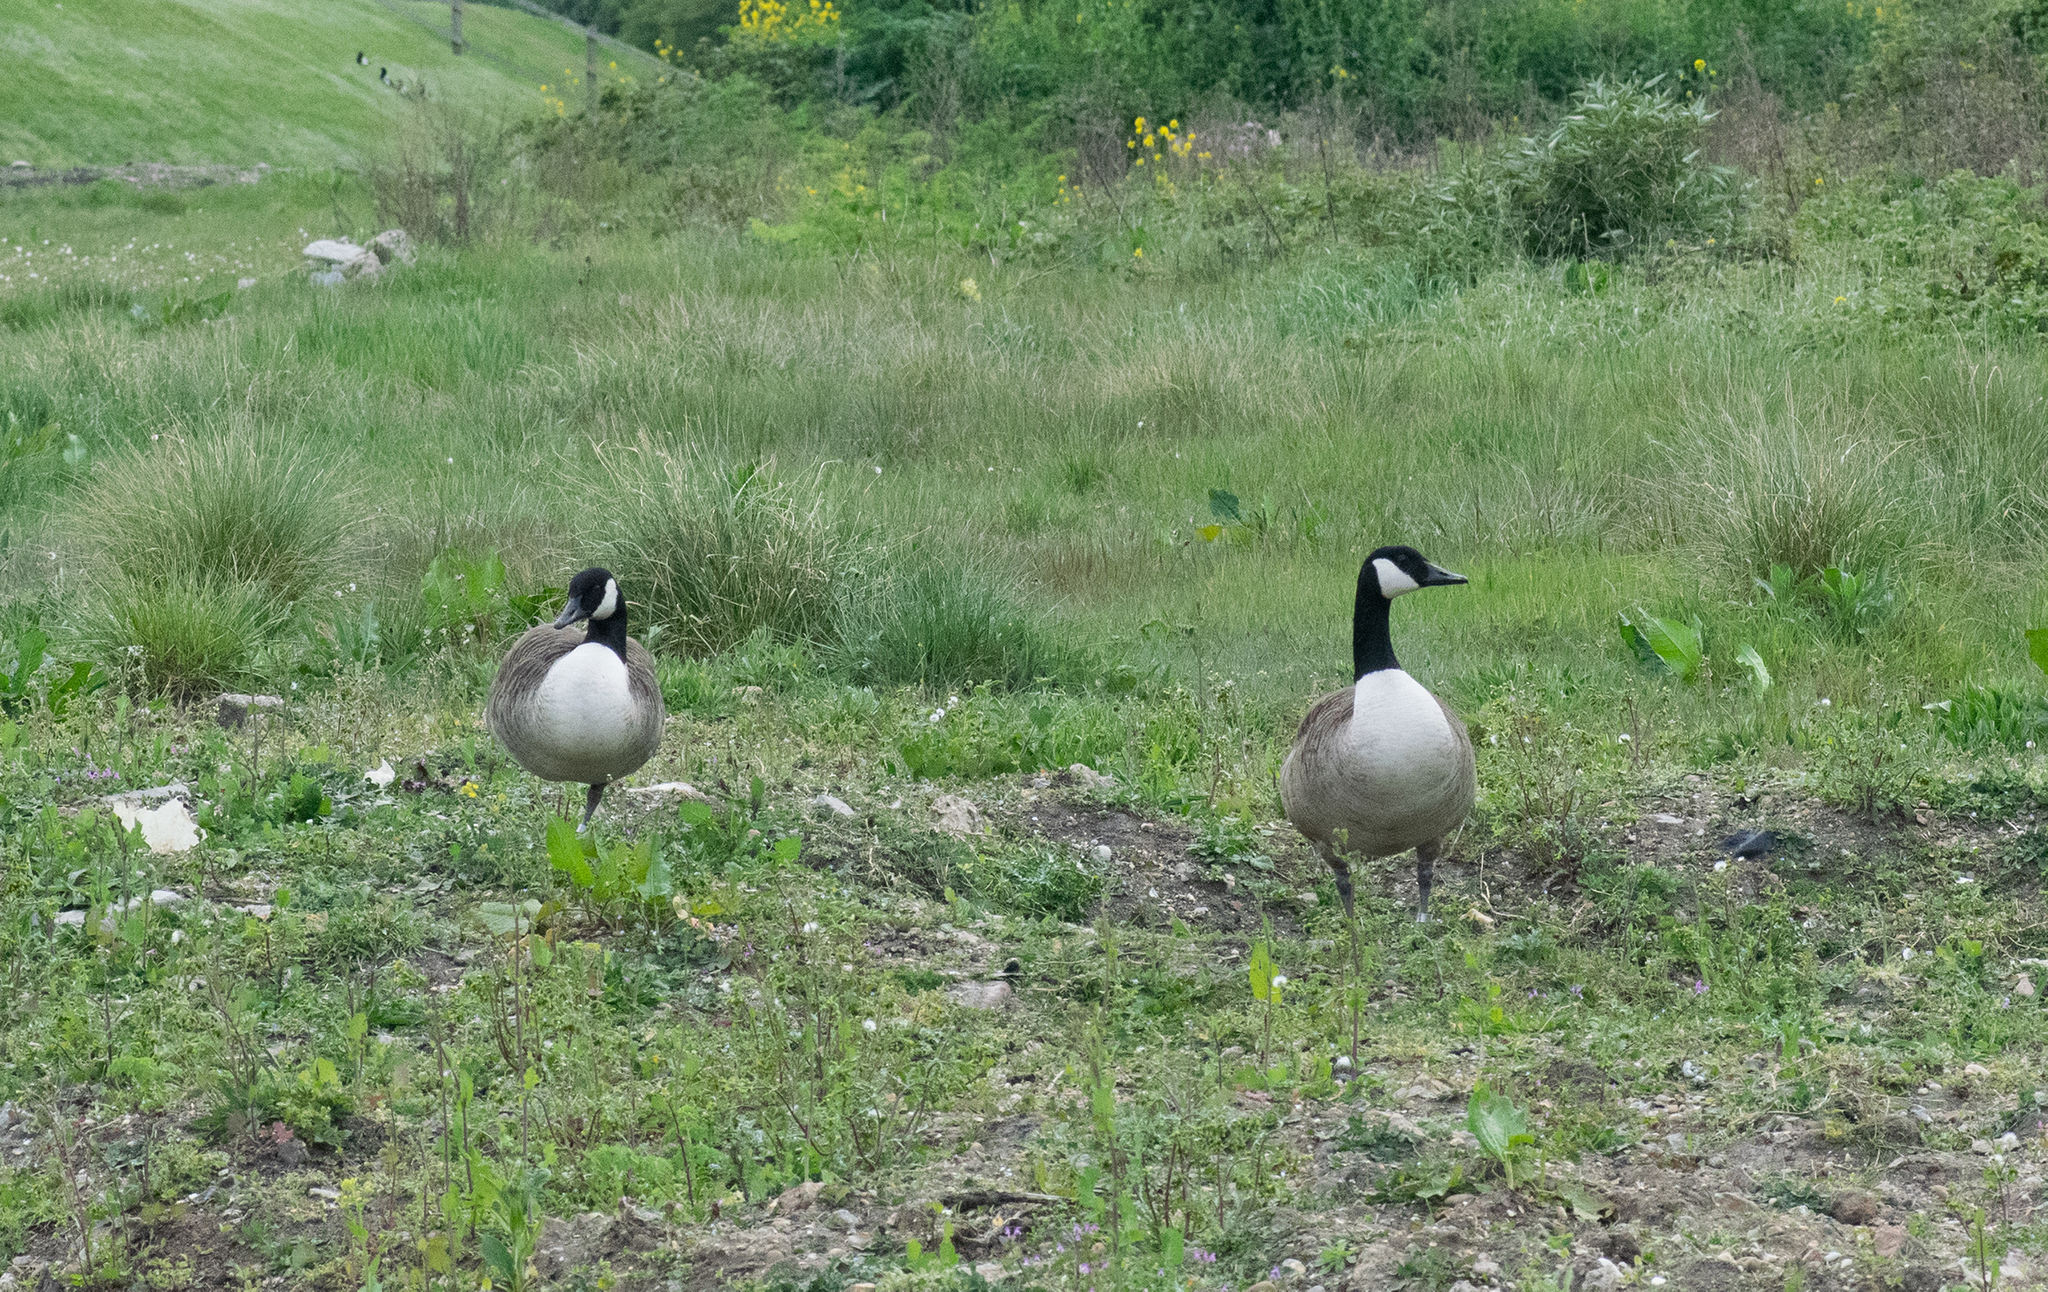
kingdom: Animalia
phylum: Chordata
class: Aves
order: Anseriformes
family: Anatidae
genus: Branta
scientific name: Branta canadensis
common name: Canada goose
